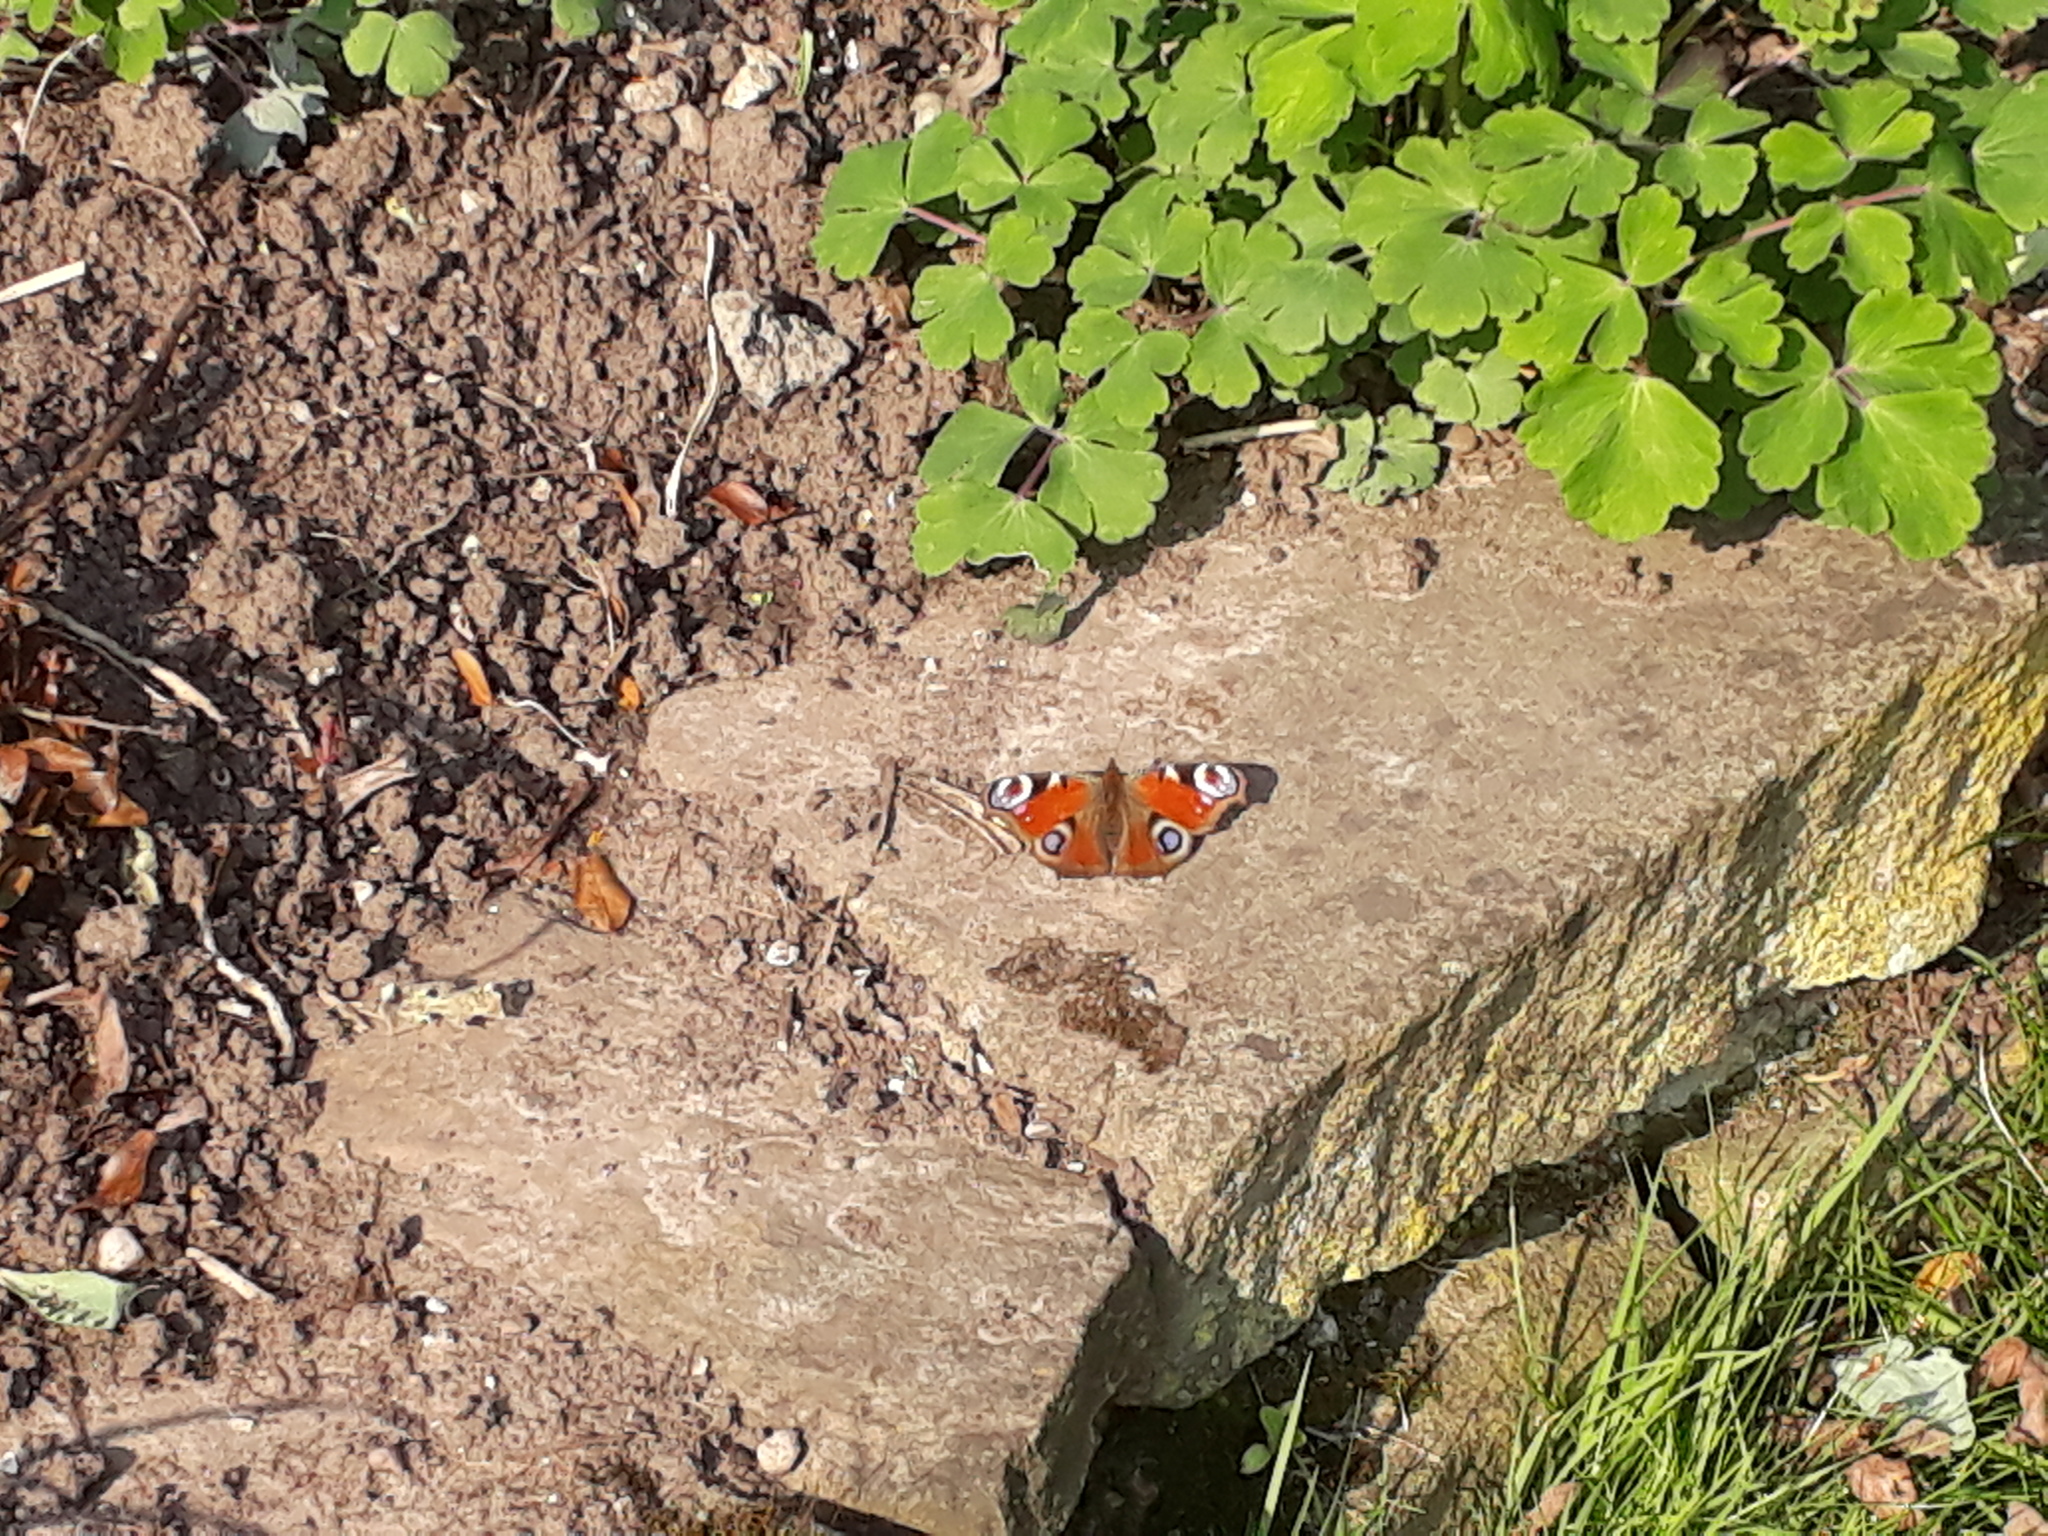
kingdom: Animalia
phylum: Arthropoda
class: Insecta
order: Lepidoptera
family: Nymphalidae
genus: Aglais
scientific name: Aglais io
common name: Peacock
